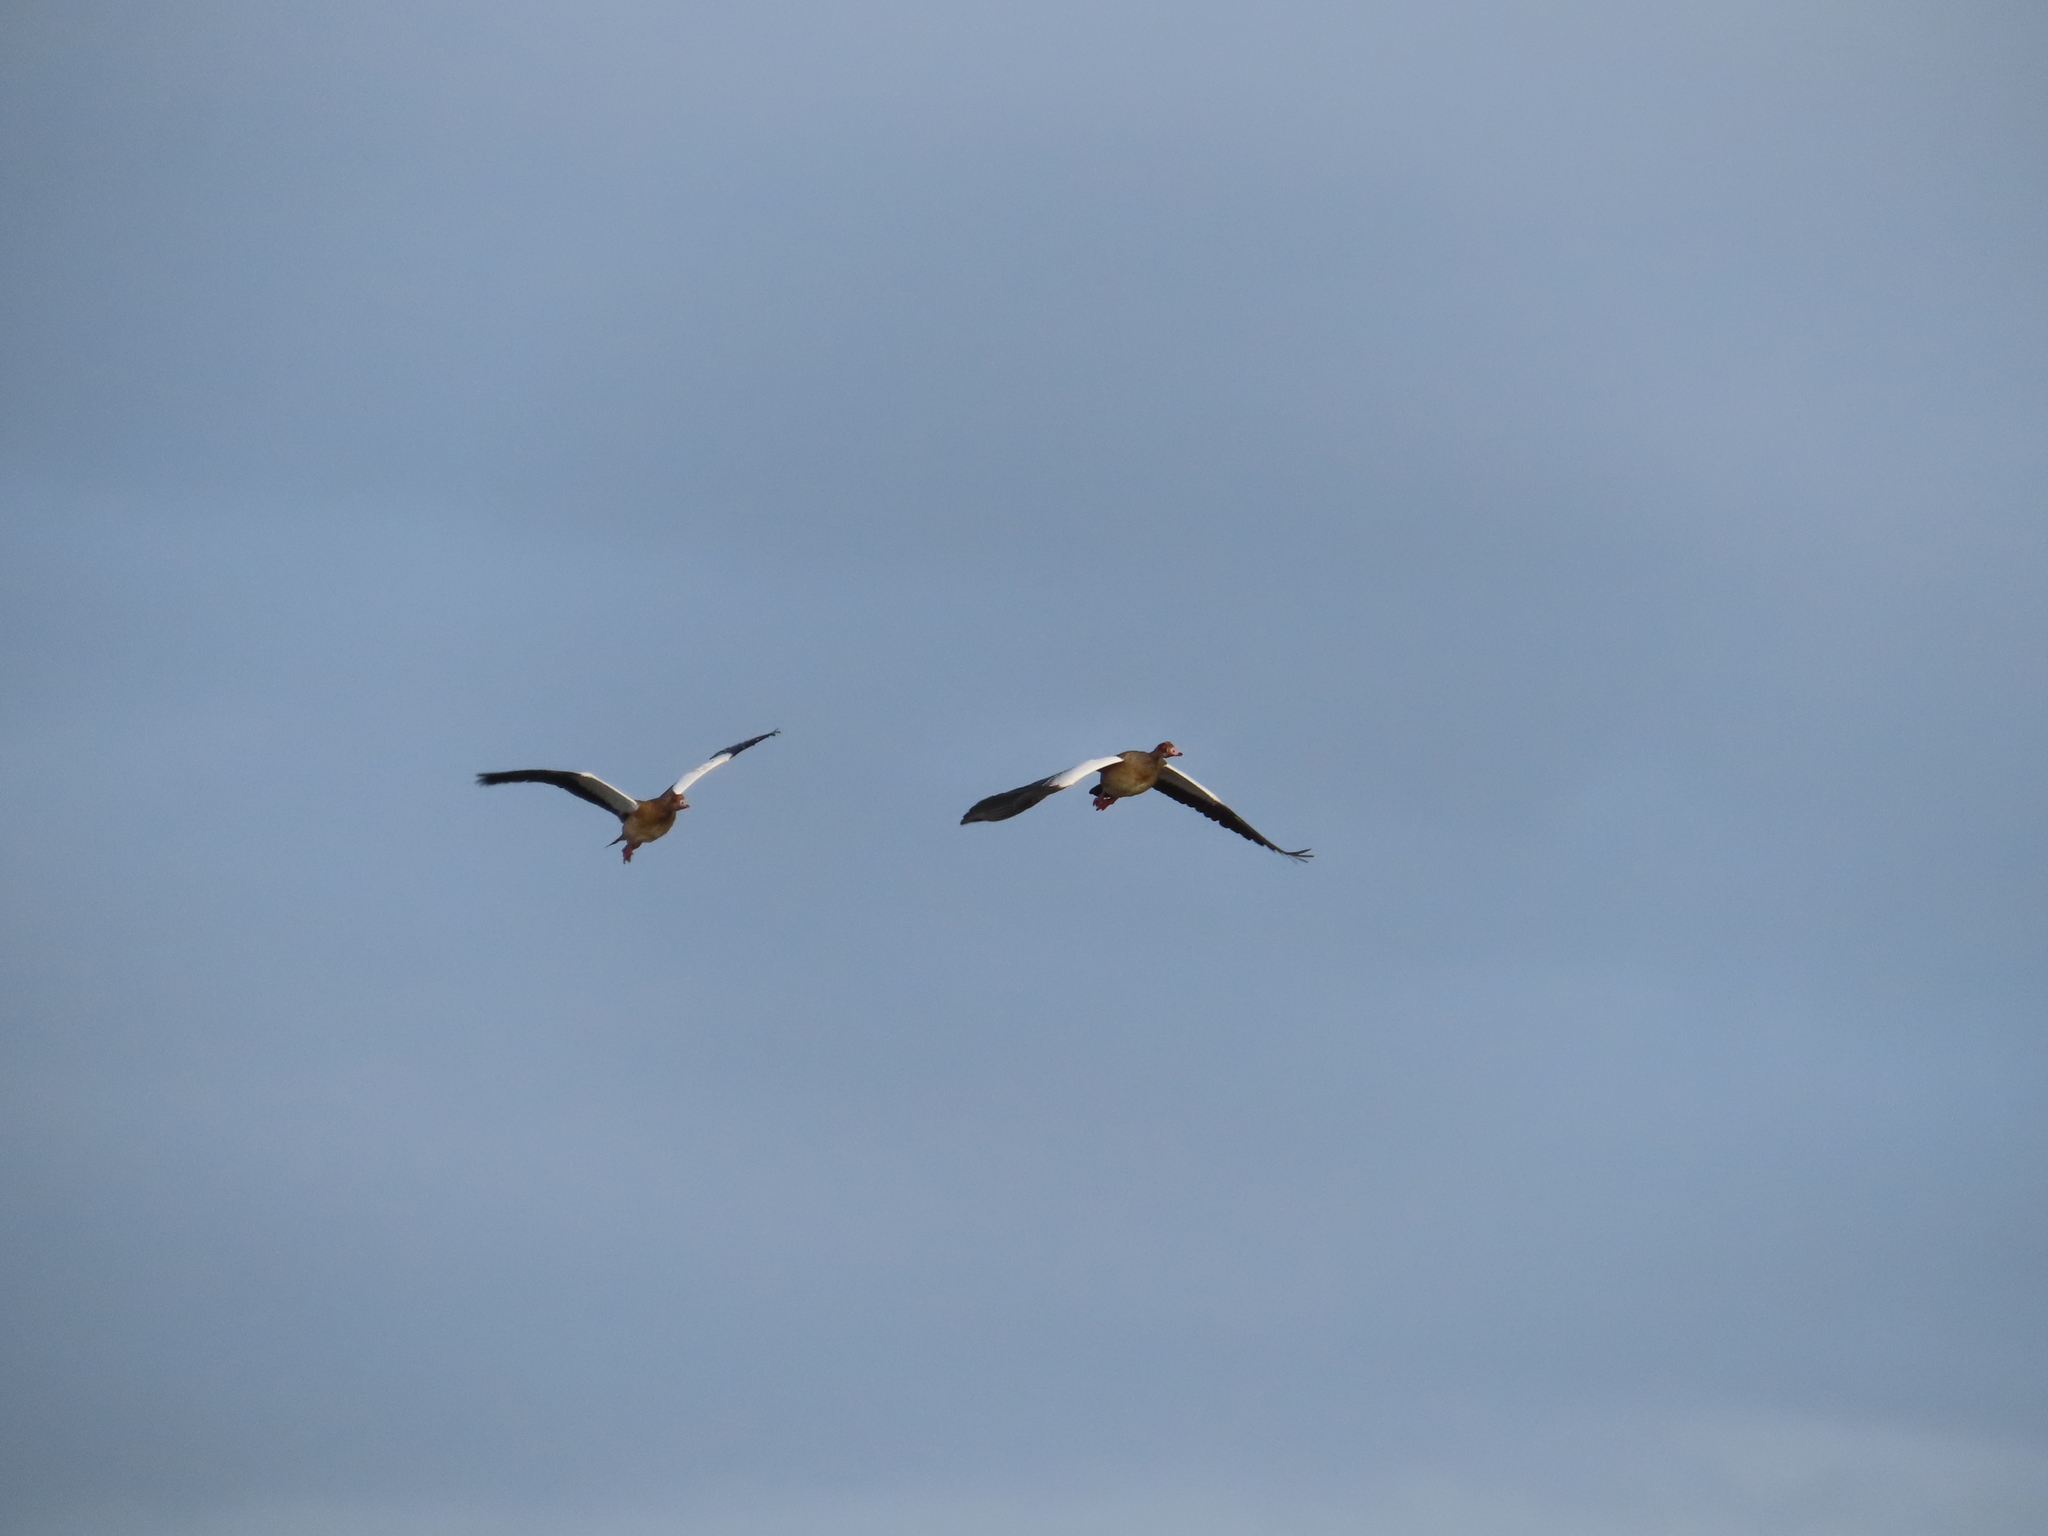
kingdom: Animalia
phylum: Chordata
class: Aves
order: Anseriformes
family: Anatidae
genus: Alopochen
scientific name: Alopochen aegyptiaca
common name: Egyptian goose
